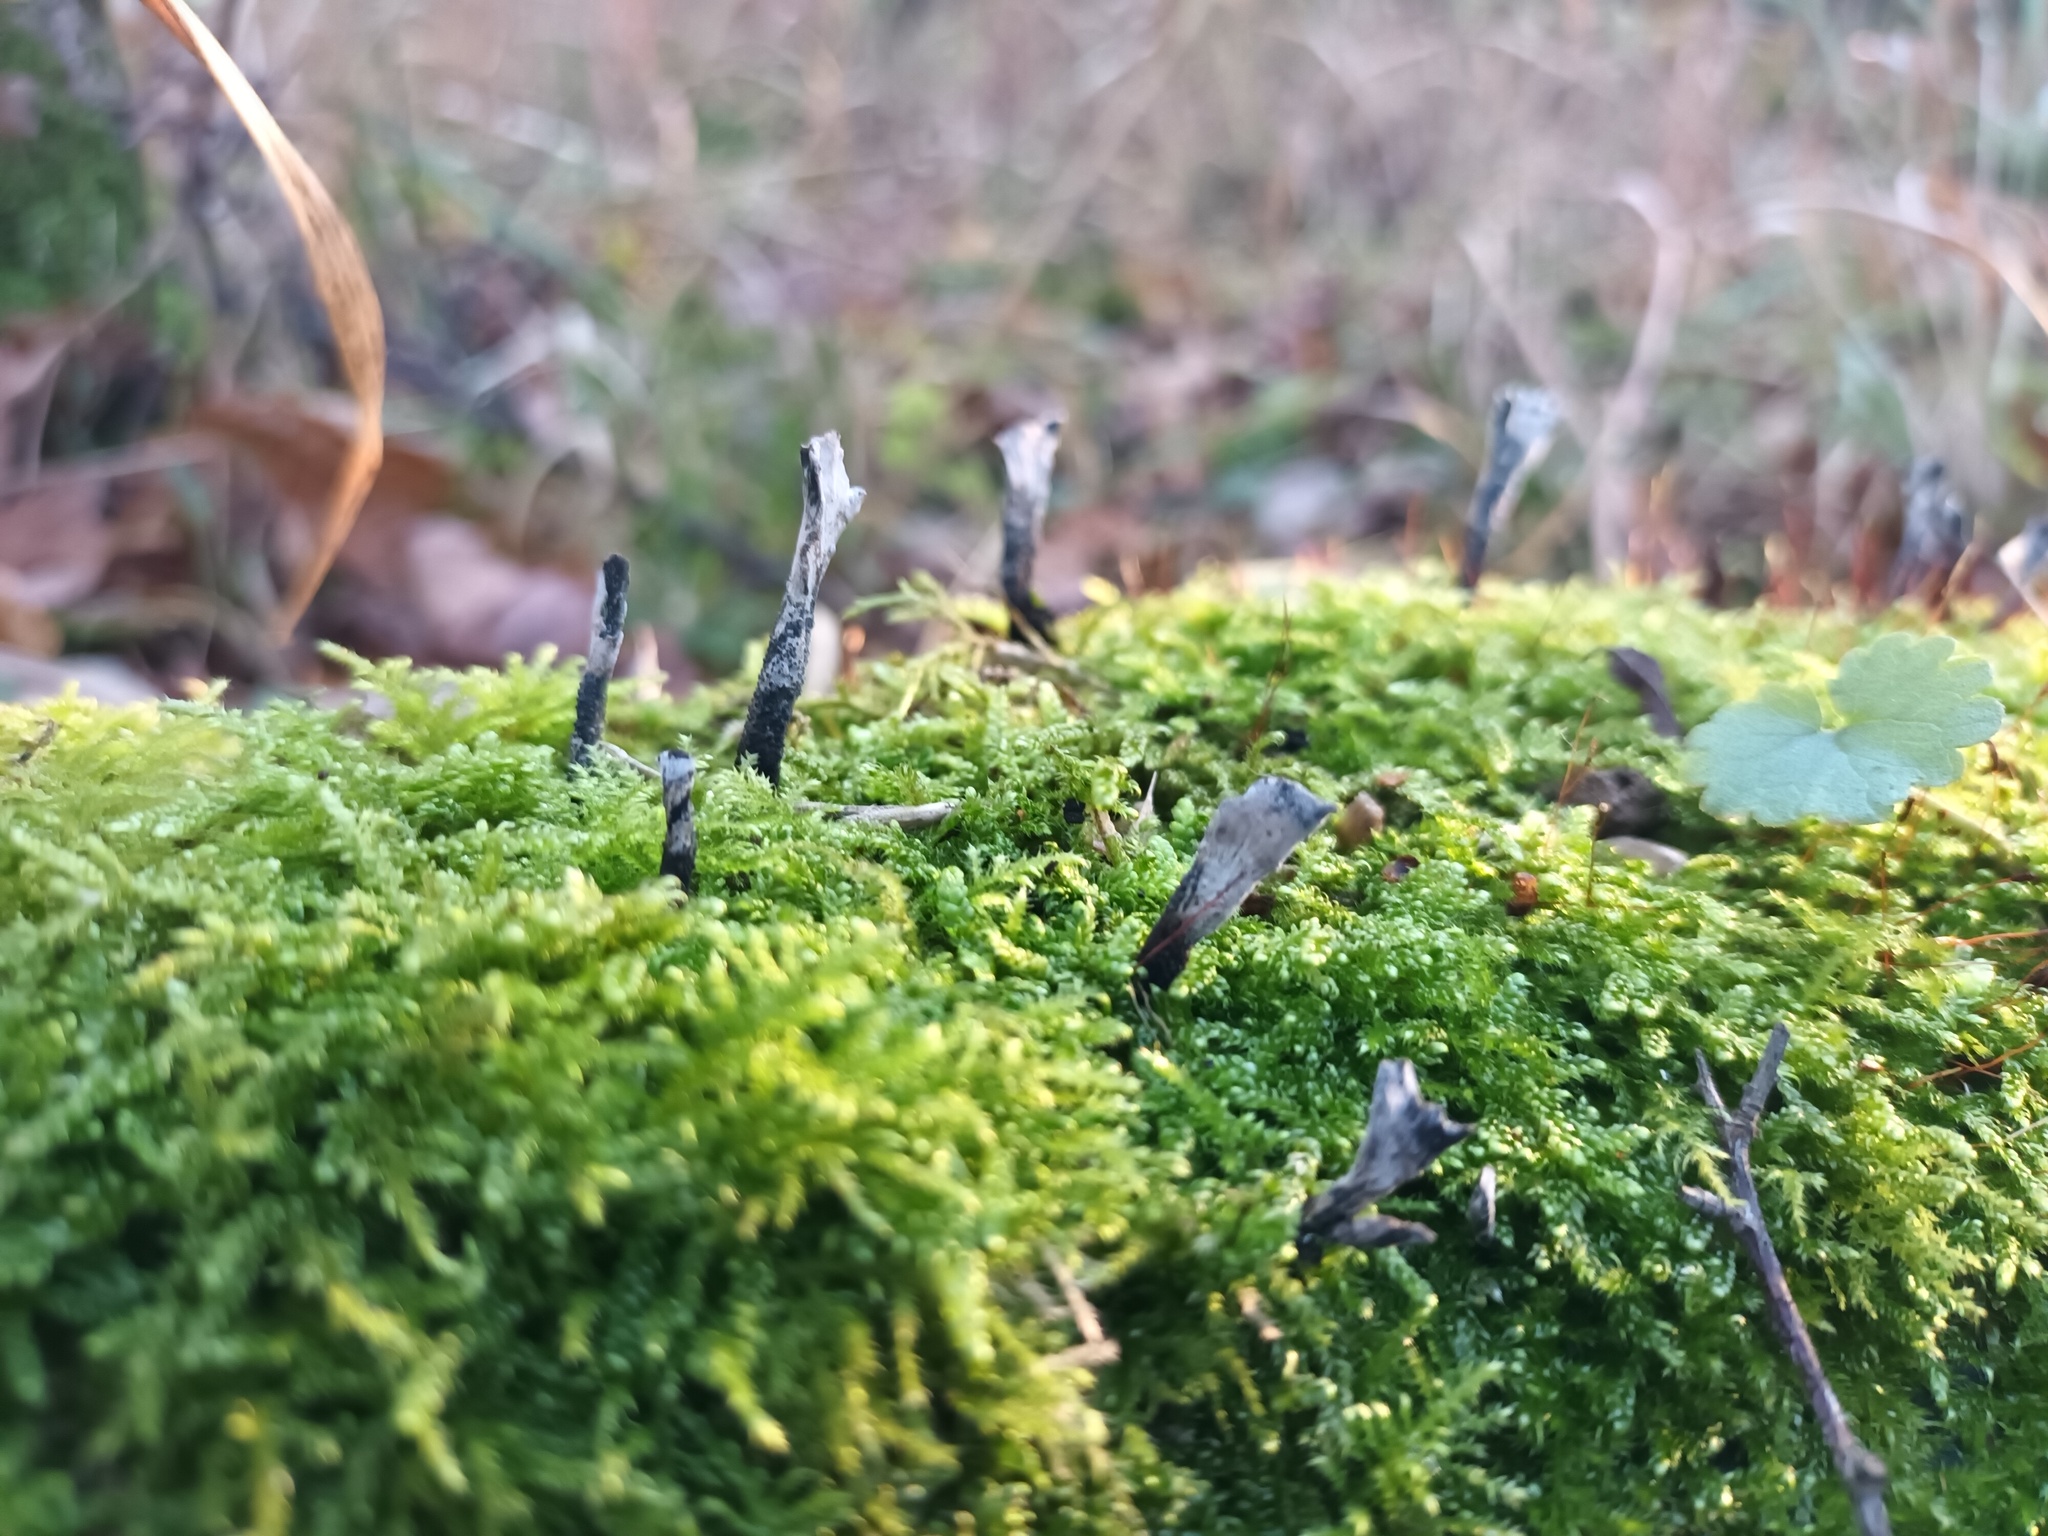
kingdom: Fungi
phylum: Ascomycota
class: Sordariomycetes
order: Xylariales
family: Xylariaceae
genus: Xylaria
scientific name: Xylaria hypoxylon
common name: Candle-snuff fungus
